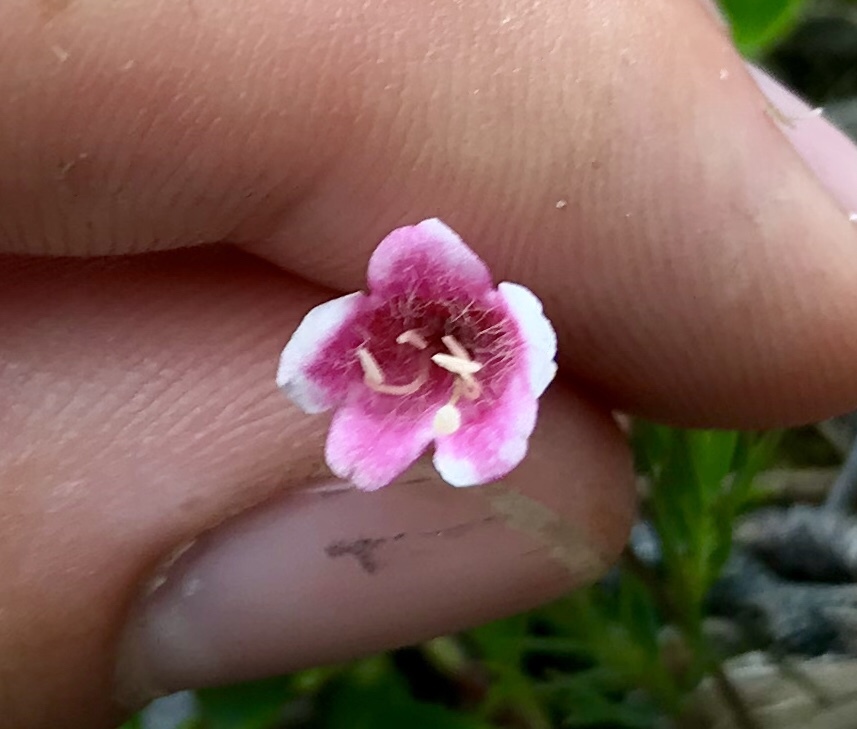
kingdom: Plantae
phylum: Tracheophyta
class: Magnoliopsida
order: Dipsacales
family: Caprifoliaceae
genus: Linnaea
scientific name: Linnaea borealis
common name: Twinflower
